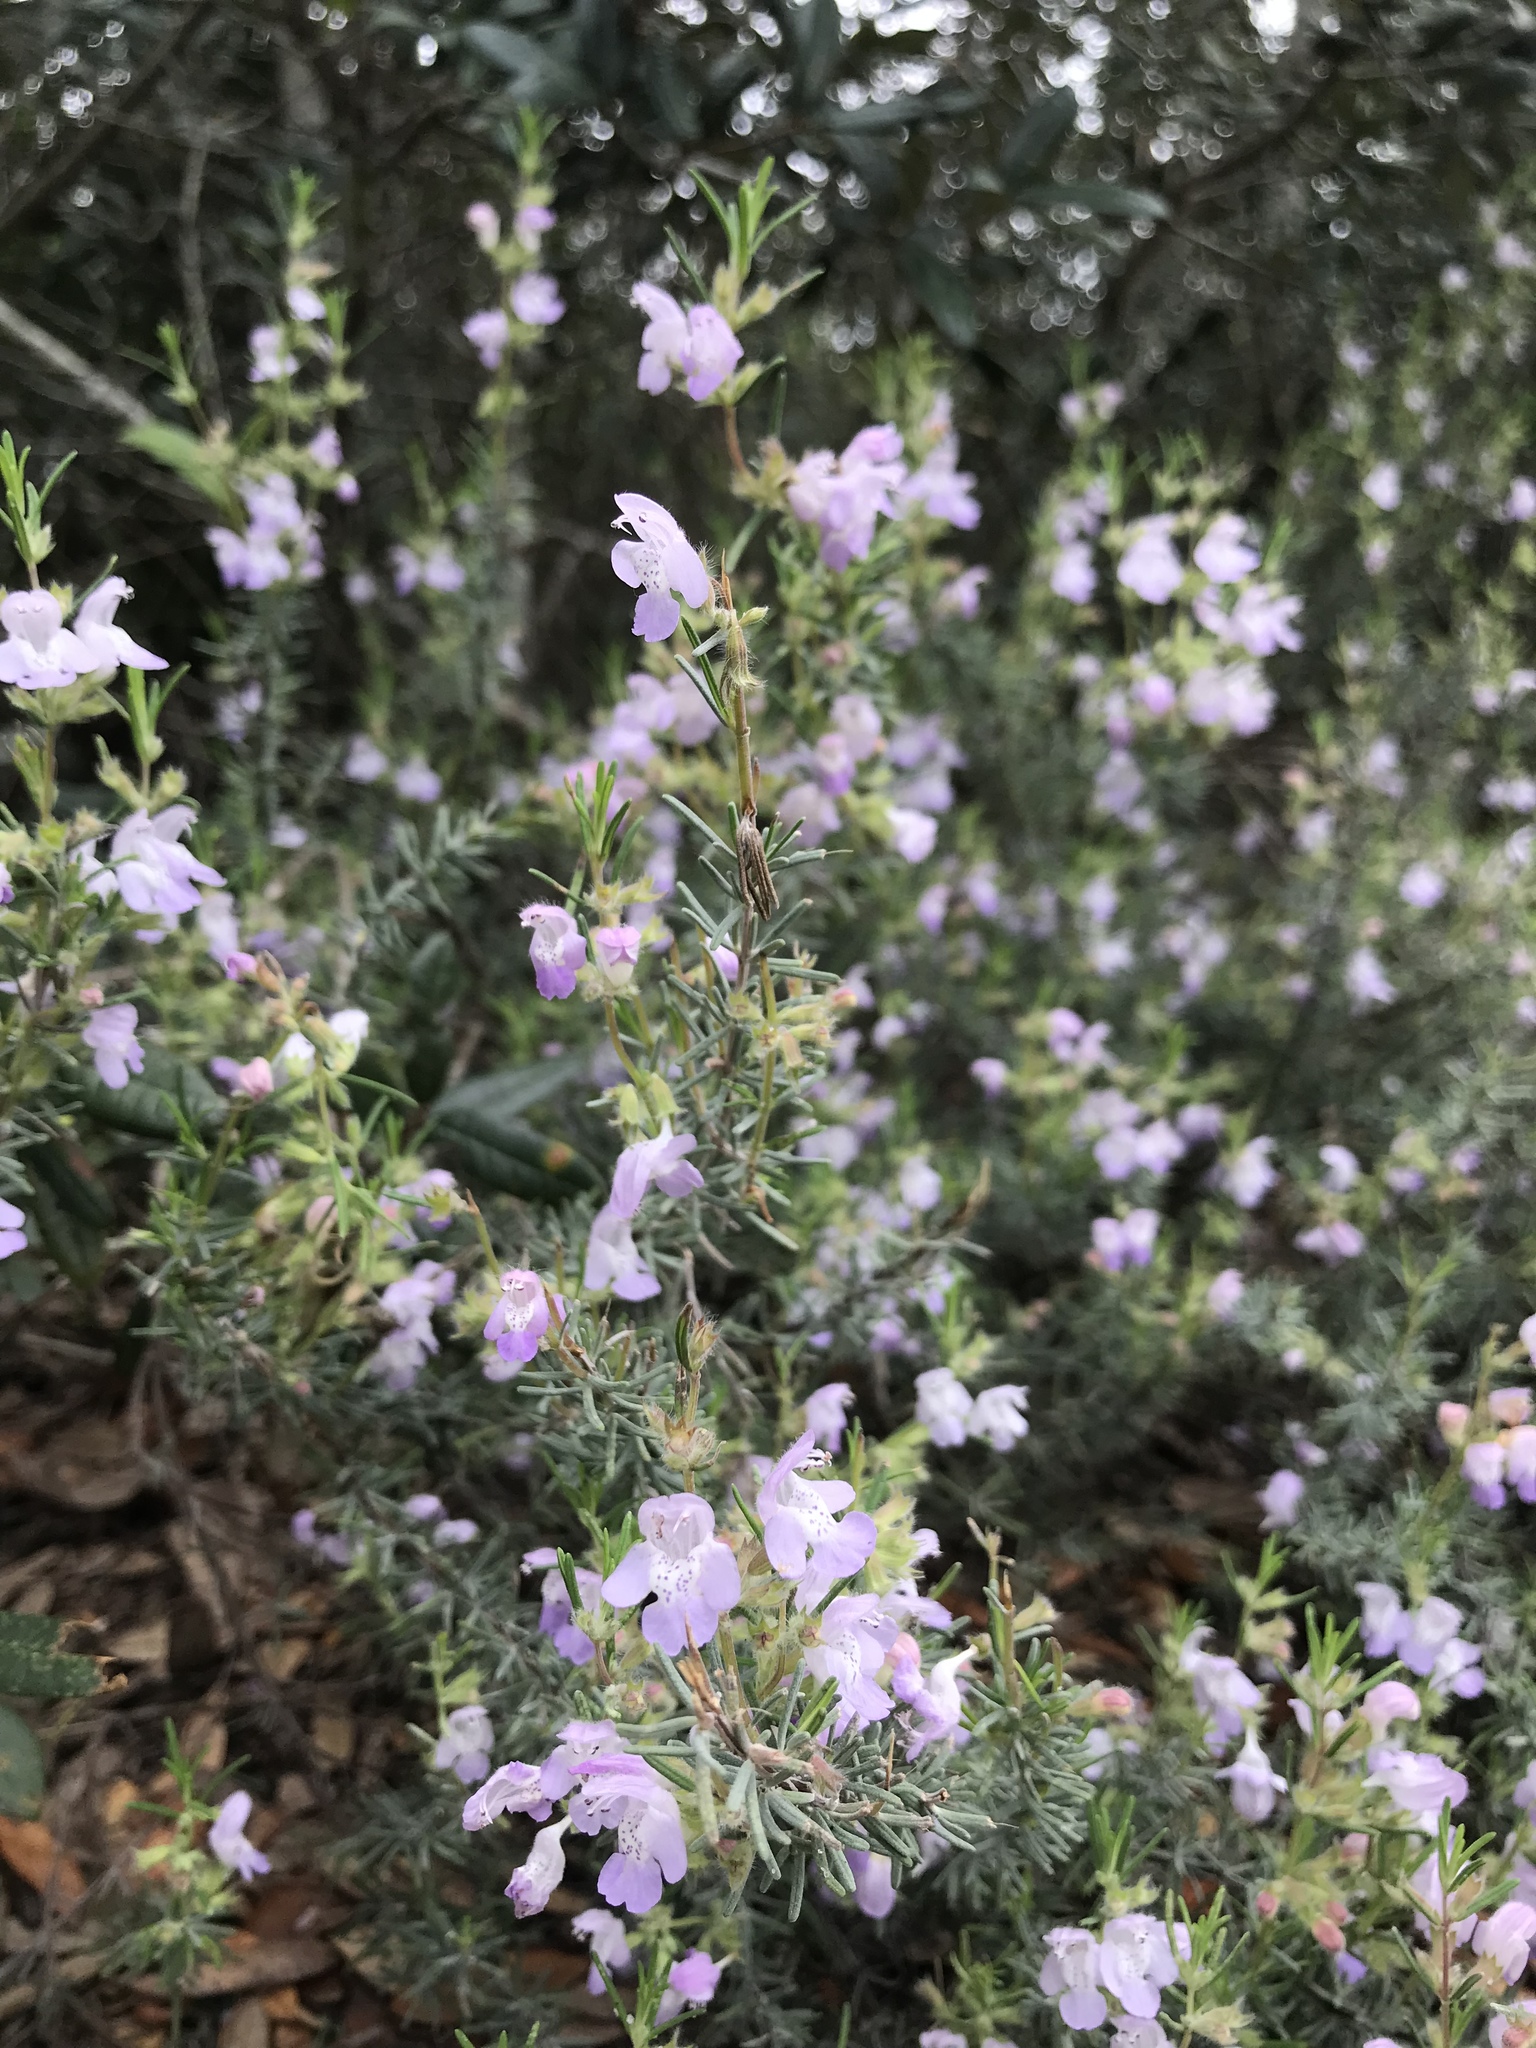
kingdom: Plantae
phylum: Tracheophyta
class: Magnoliopsida
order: Lamiales
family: Lamiaceae
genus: Conradina
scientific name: Conradina canescens
